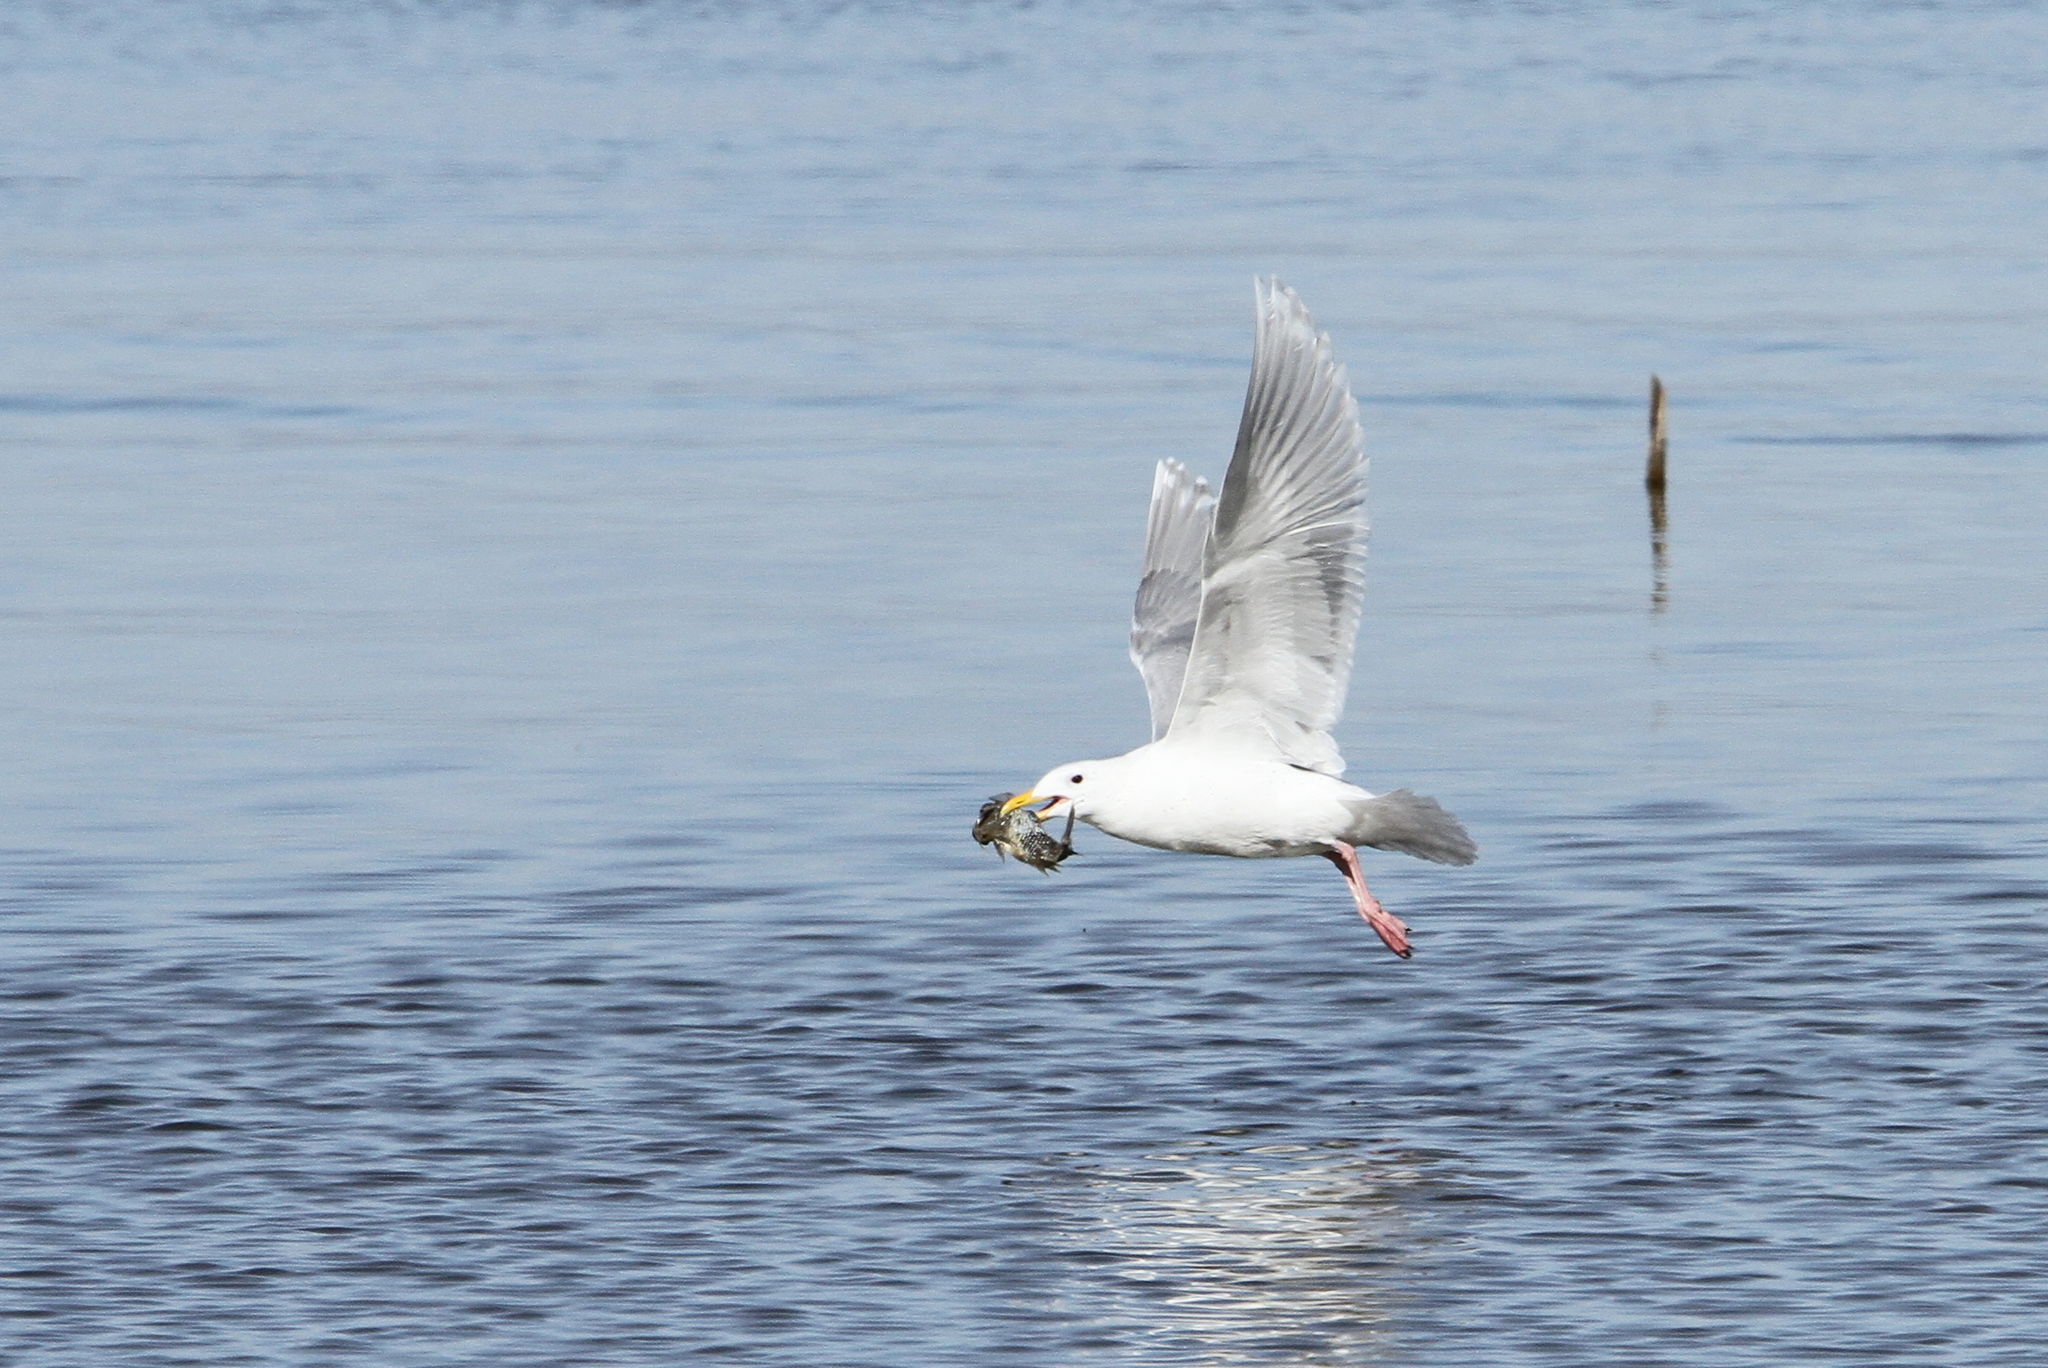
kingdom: Animalia
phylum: Chordata
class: Aves
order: Charadriiformes
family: Laridae
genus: Larus
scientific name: Larus glaucescens
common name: Glaucous-winged gull
